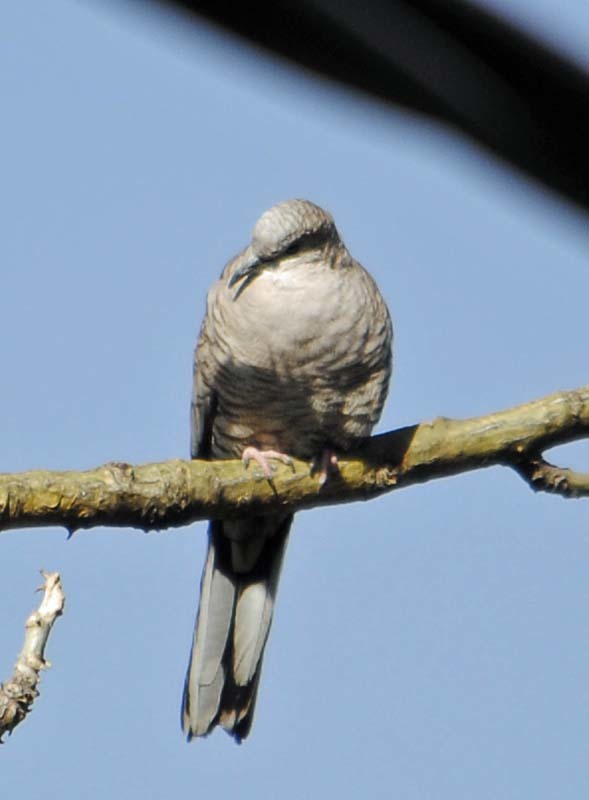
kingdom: Animalia
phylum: Chordata
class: Aves
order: Columbiformes
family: Columbidae
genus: Columbina
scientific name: Columbina inca
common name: Inca dove
